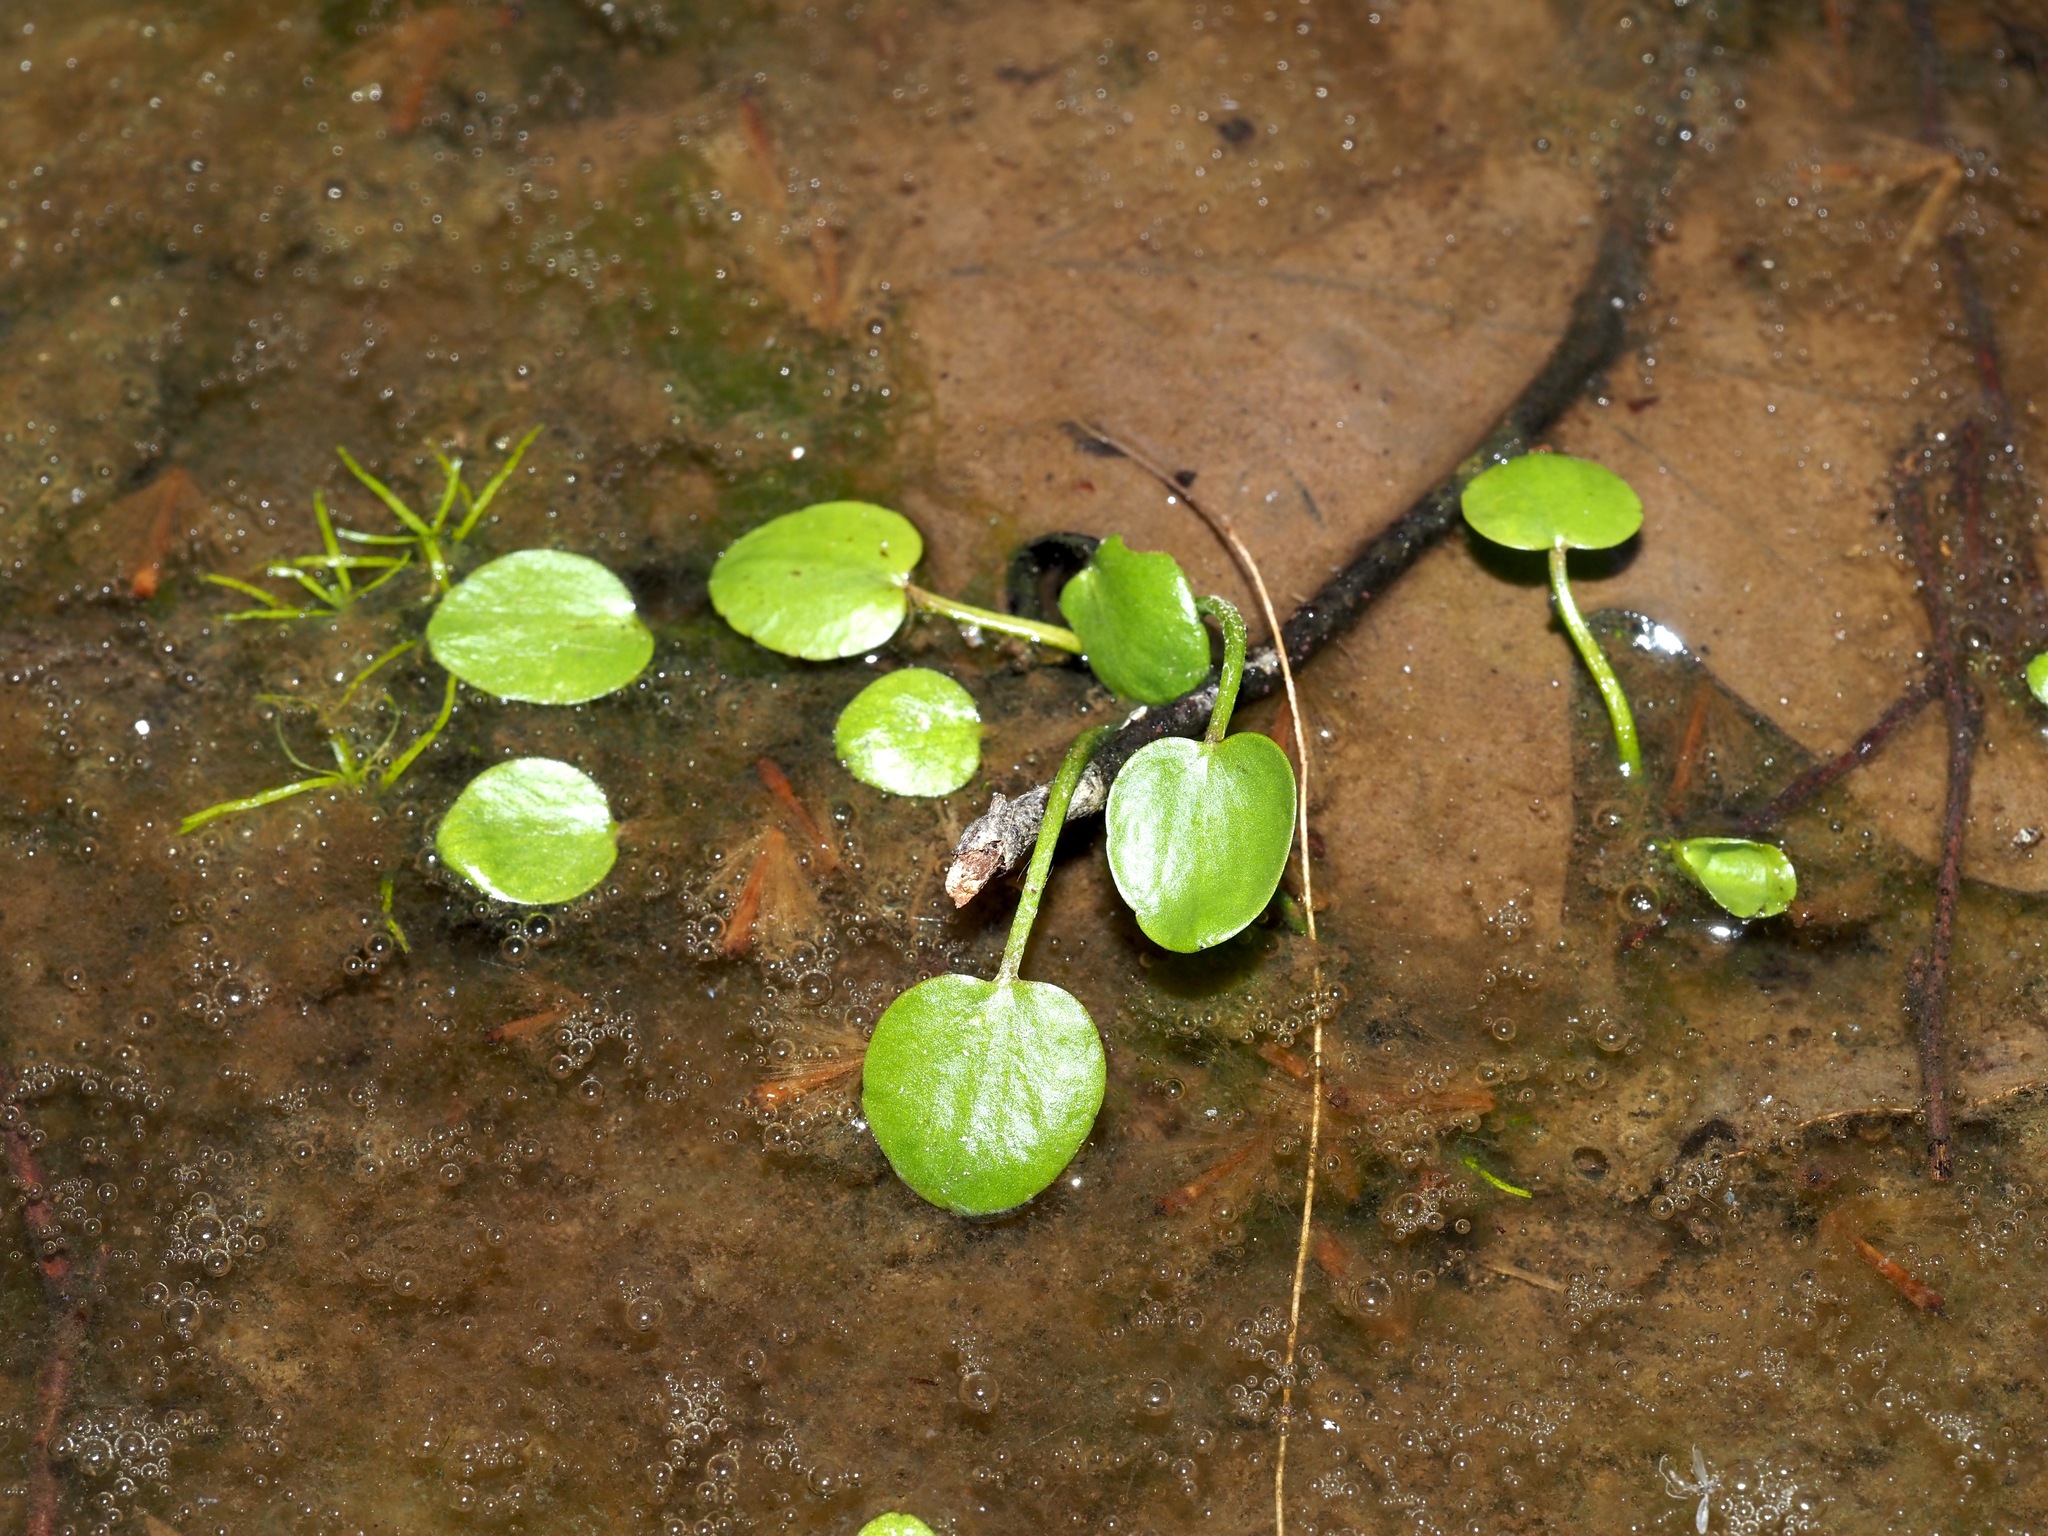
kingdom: Plantae
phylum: Tracheophyta
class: Magnoliopsida
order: Ranunculales
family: Ranunculaceae
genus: Ranunculus
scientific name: Ranunculus pusillus
